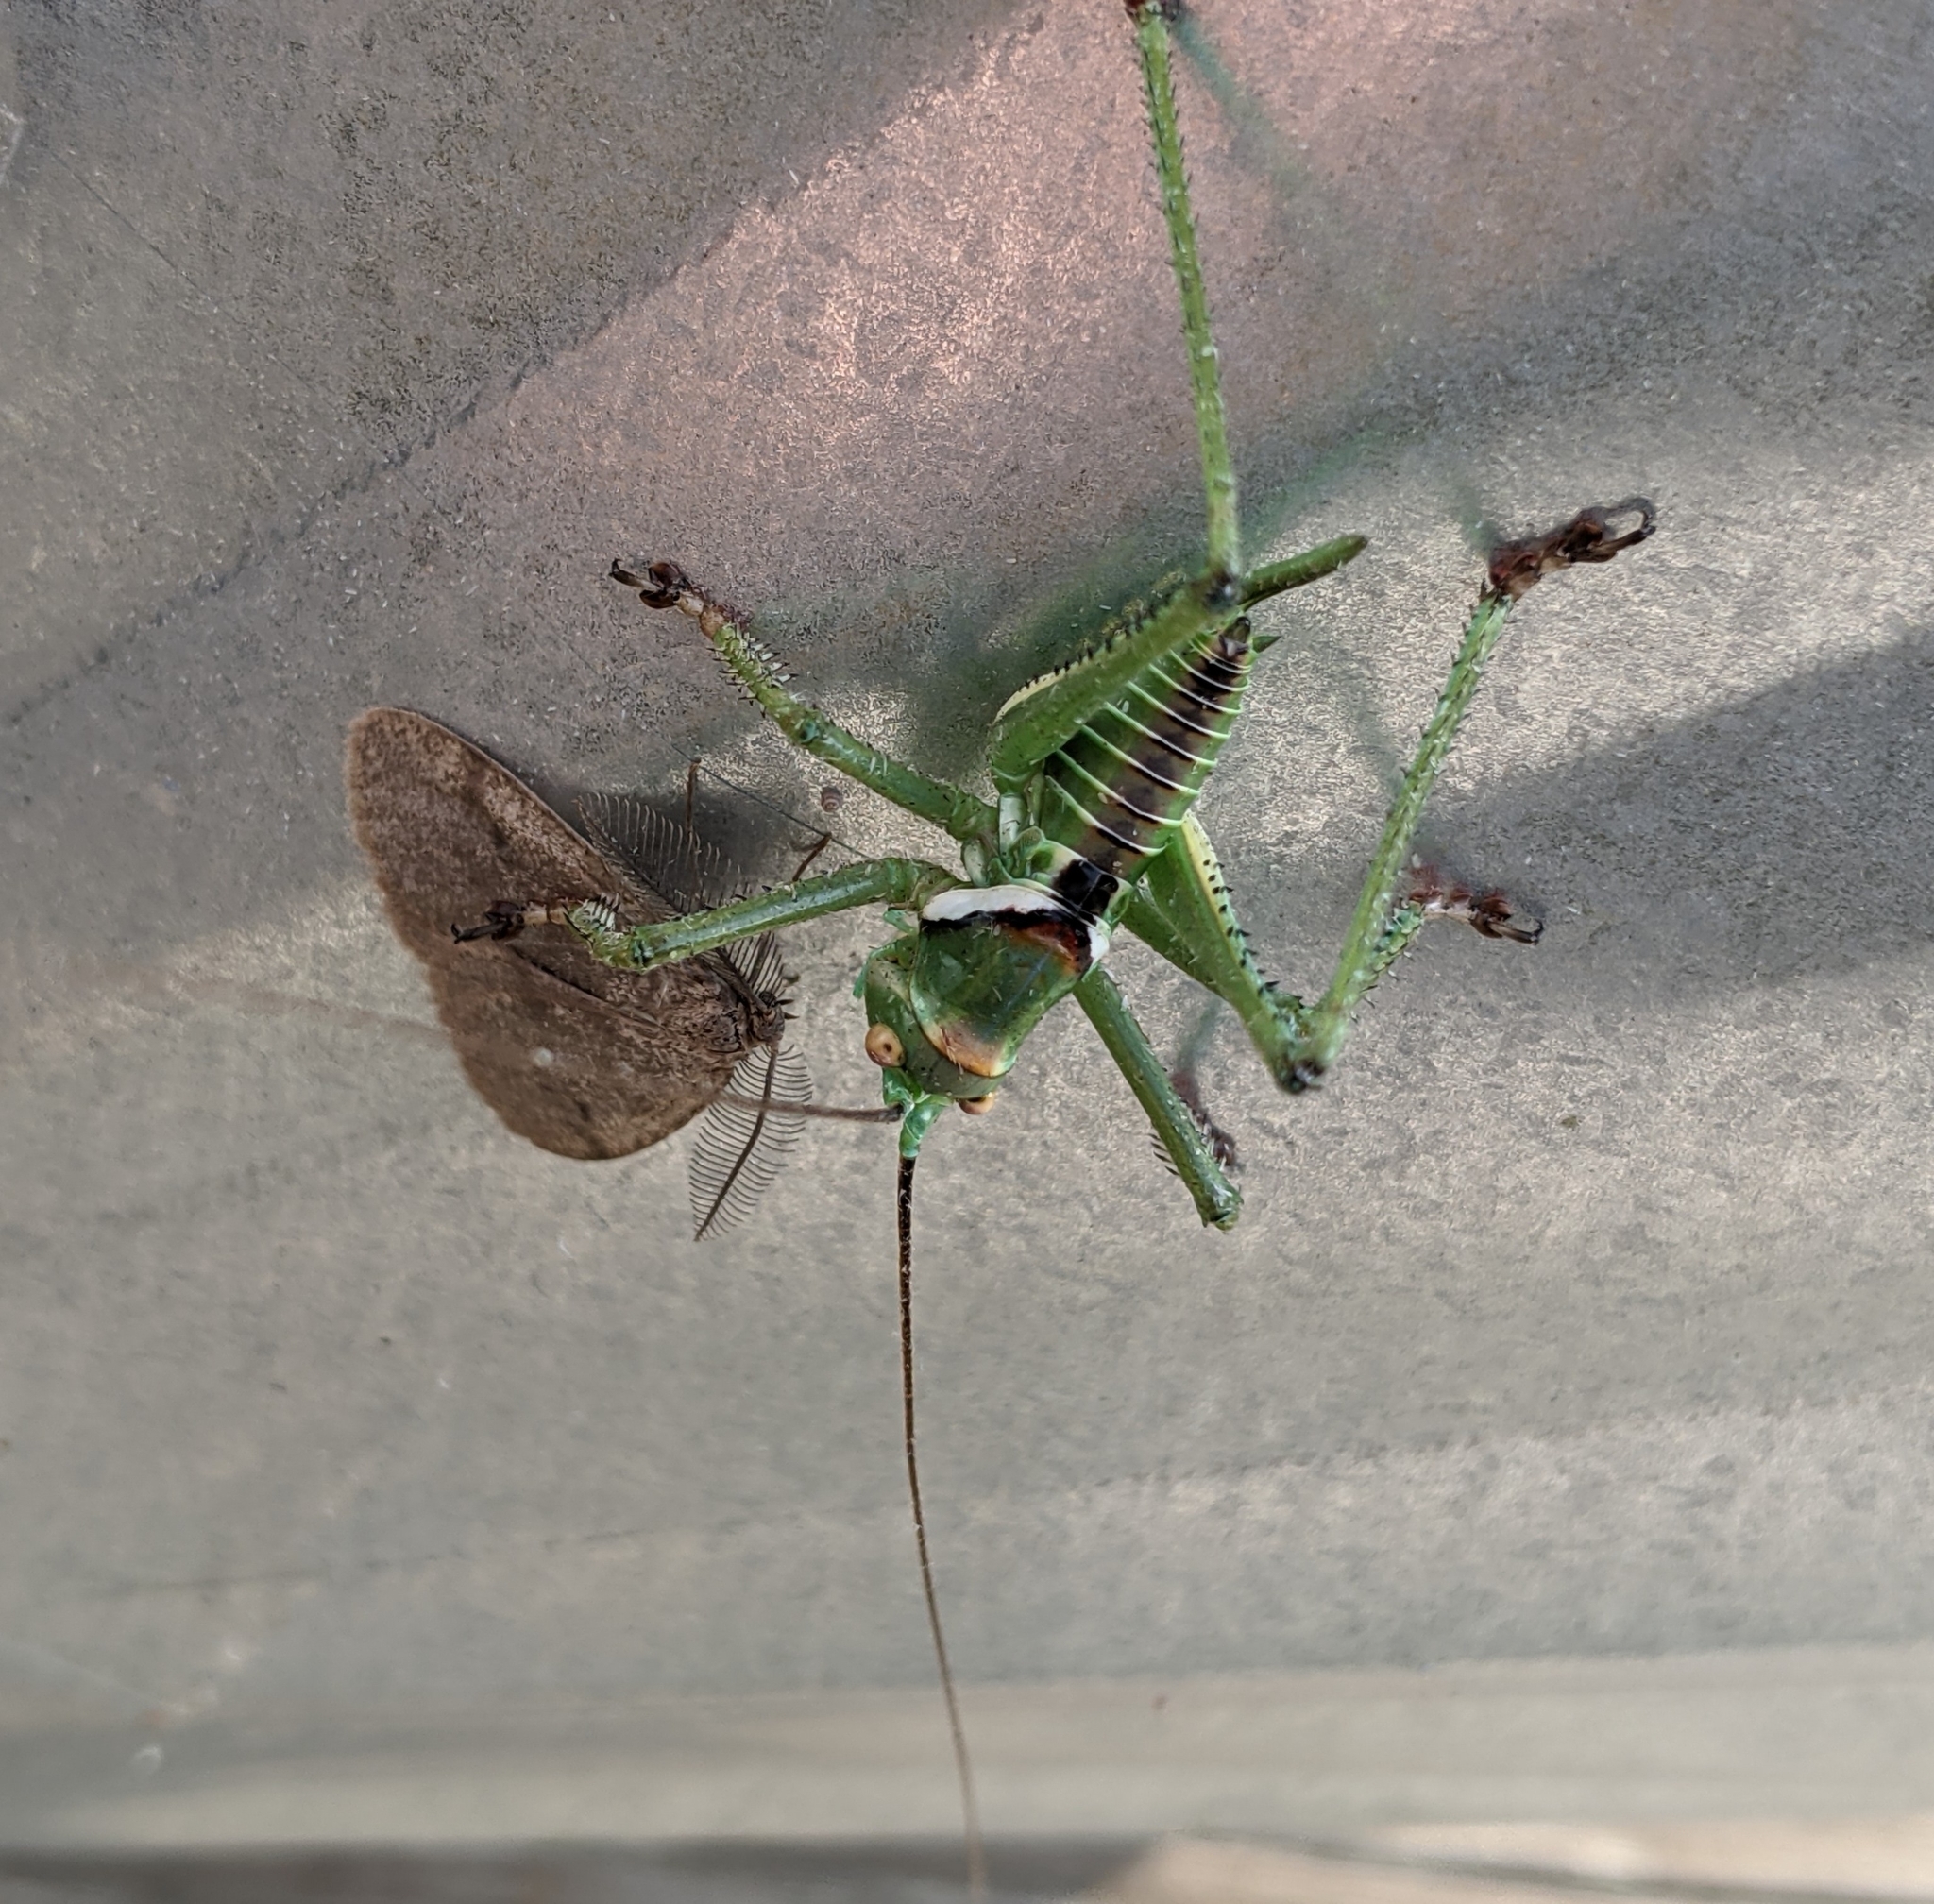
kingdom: Animalia
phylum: Arthropoda
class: Insecta
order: Orthoptera
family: Tettigoniidae
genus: Neobarrettia
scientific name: Neobarrettia spinosa
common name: Greater arid-land katydid
